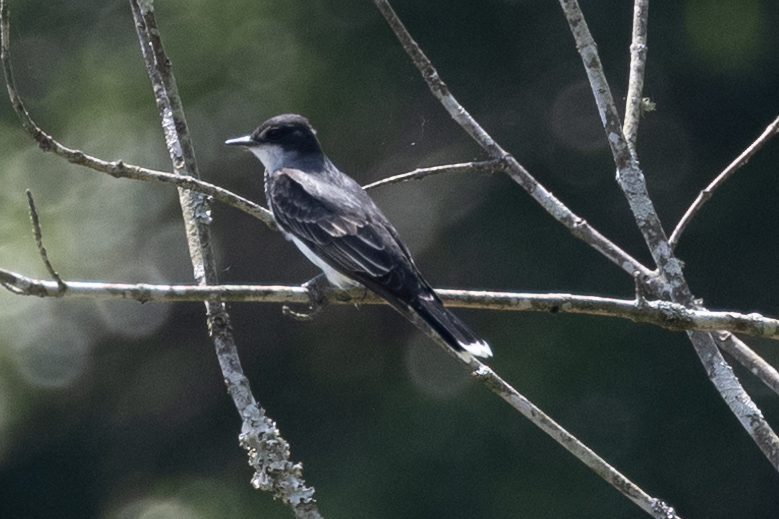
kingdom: Animalia
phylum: Chordata
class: Aves
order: Passeriformes
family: Tyrannidae
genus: Tyrannus
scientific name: Tyrannus tyrannus
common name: Eastern kingbird
